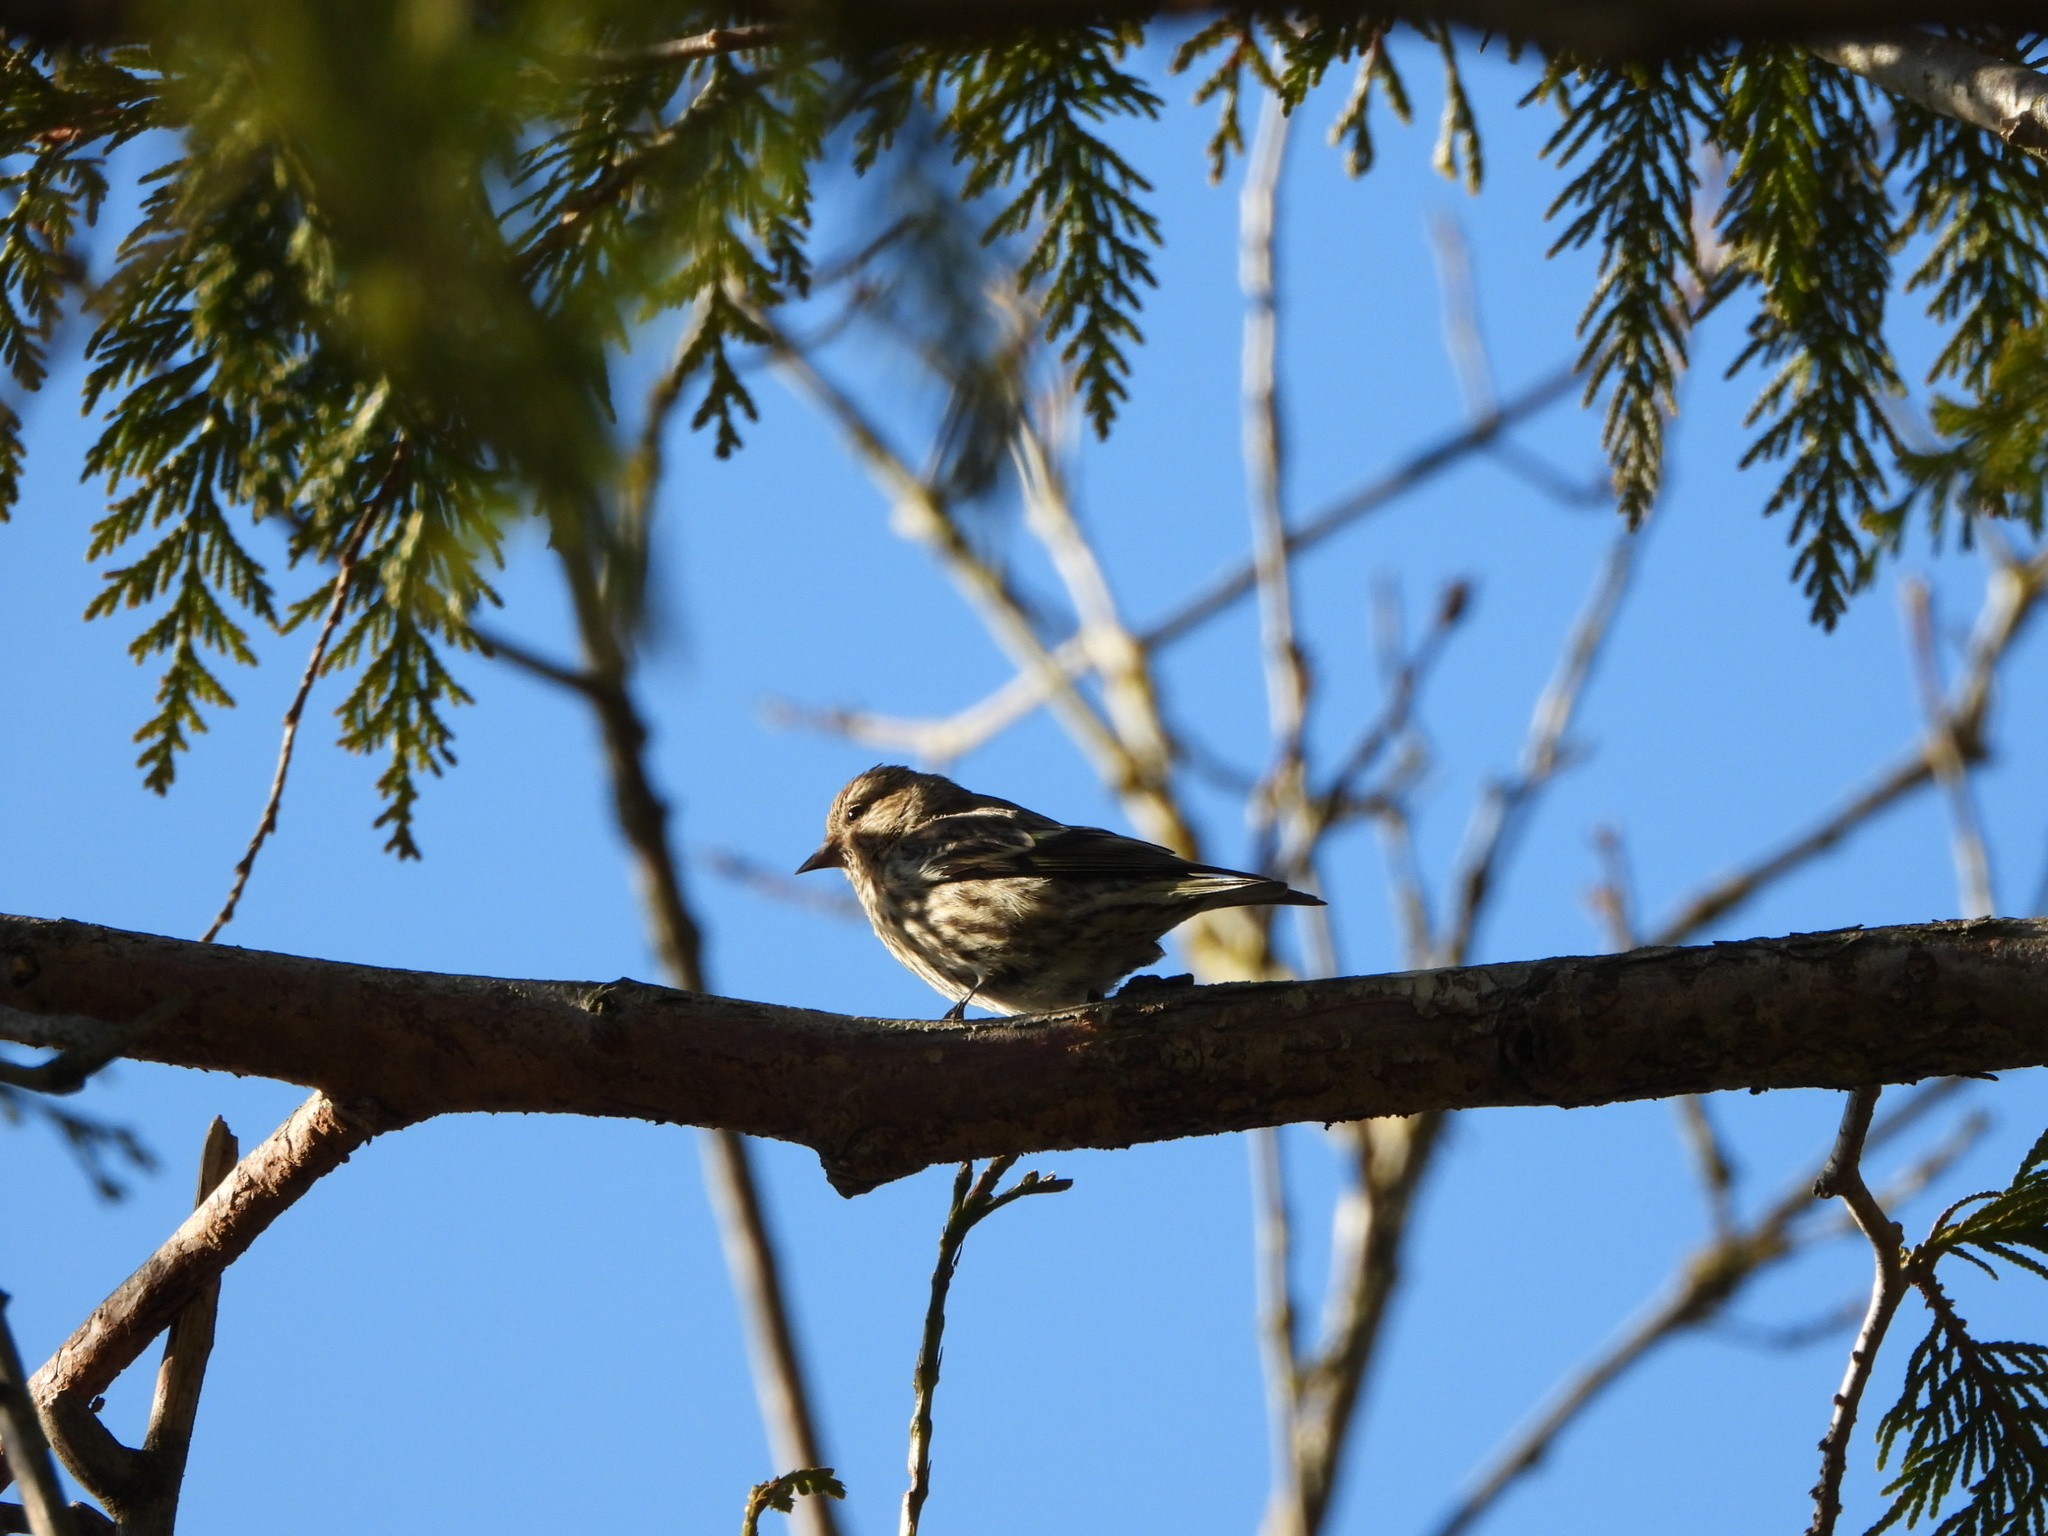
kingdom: Animalia
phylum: Chordata
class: Aves
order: Passeriformes
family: Fringillidae
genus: Spinus
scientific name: Spinus pinus
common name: Pine siskin
